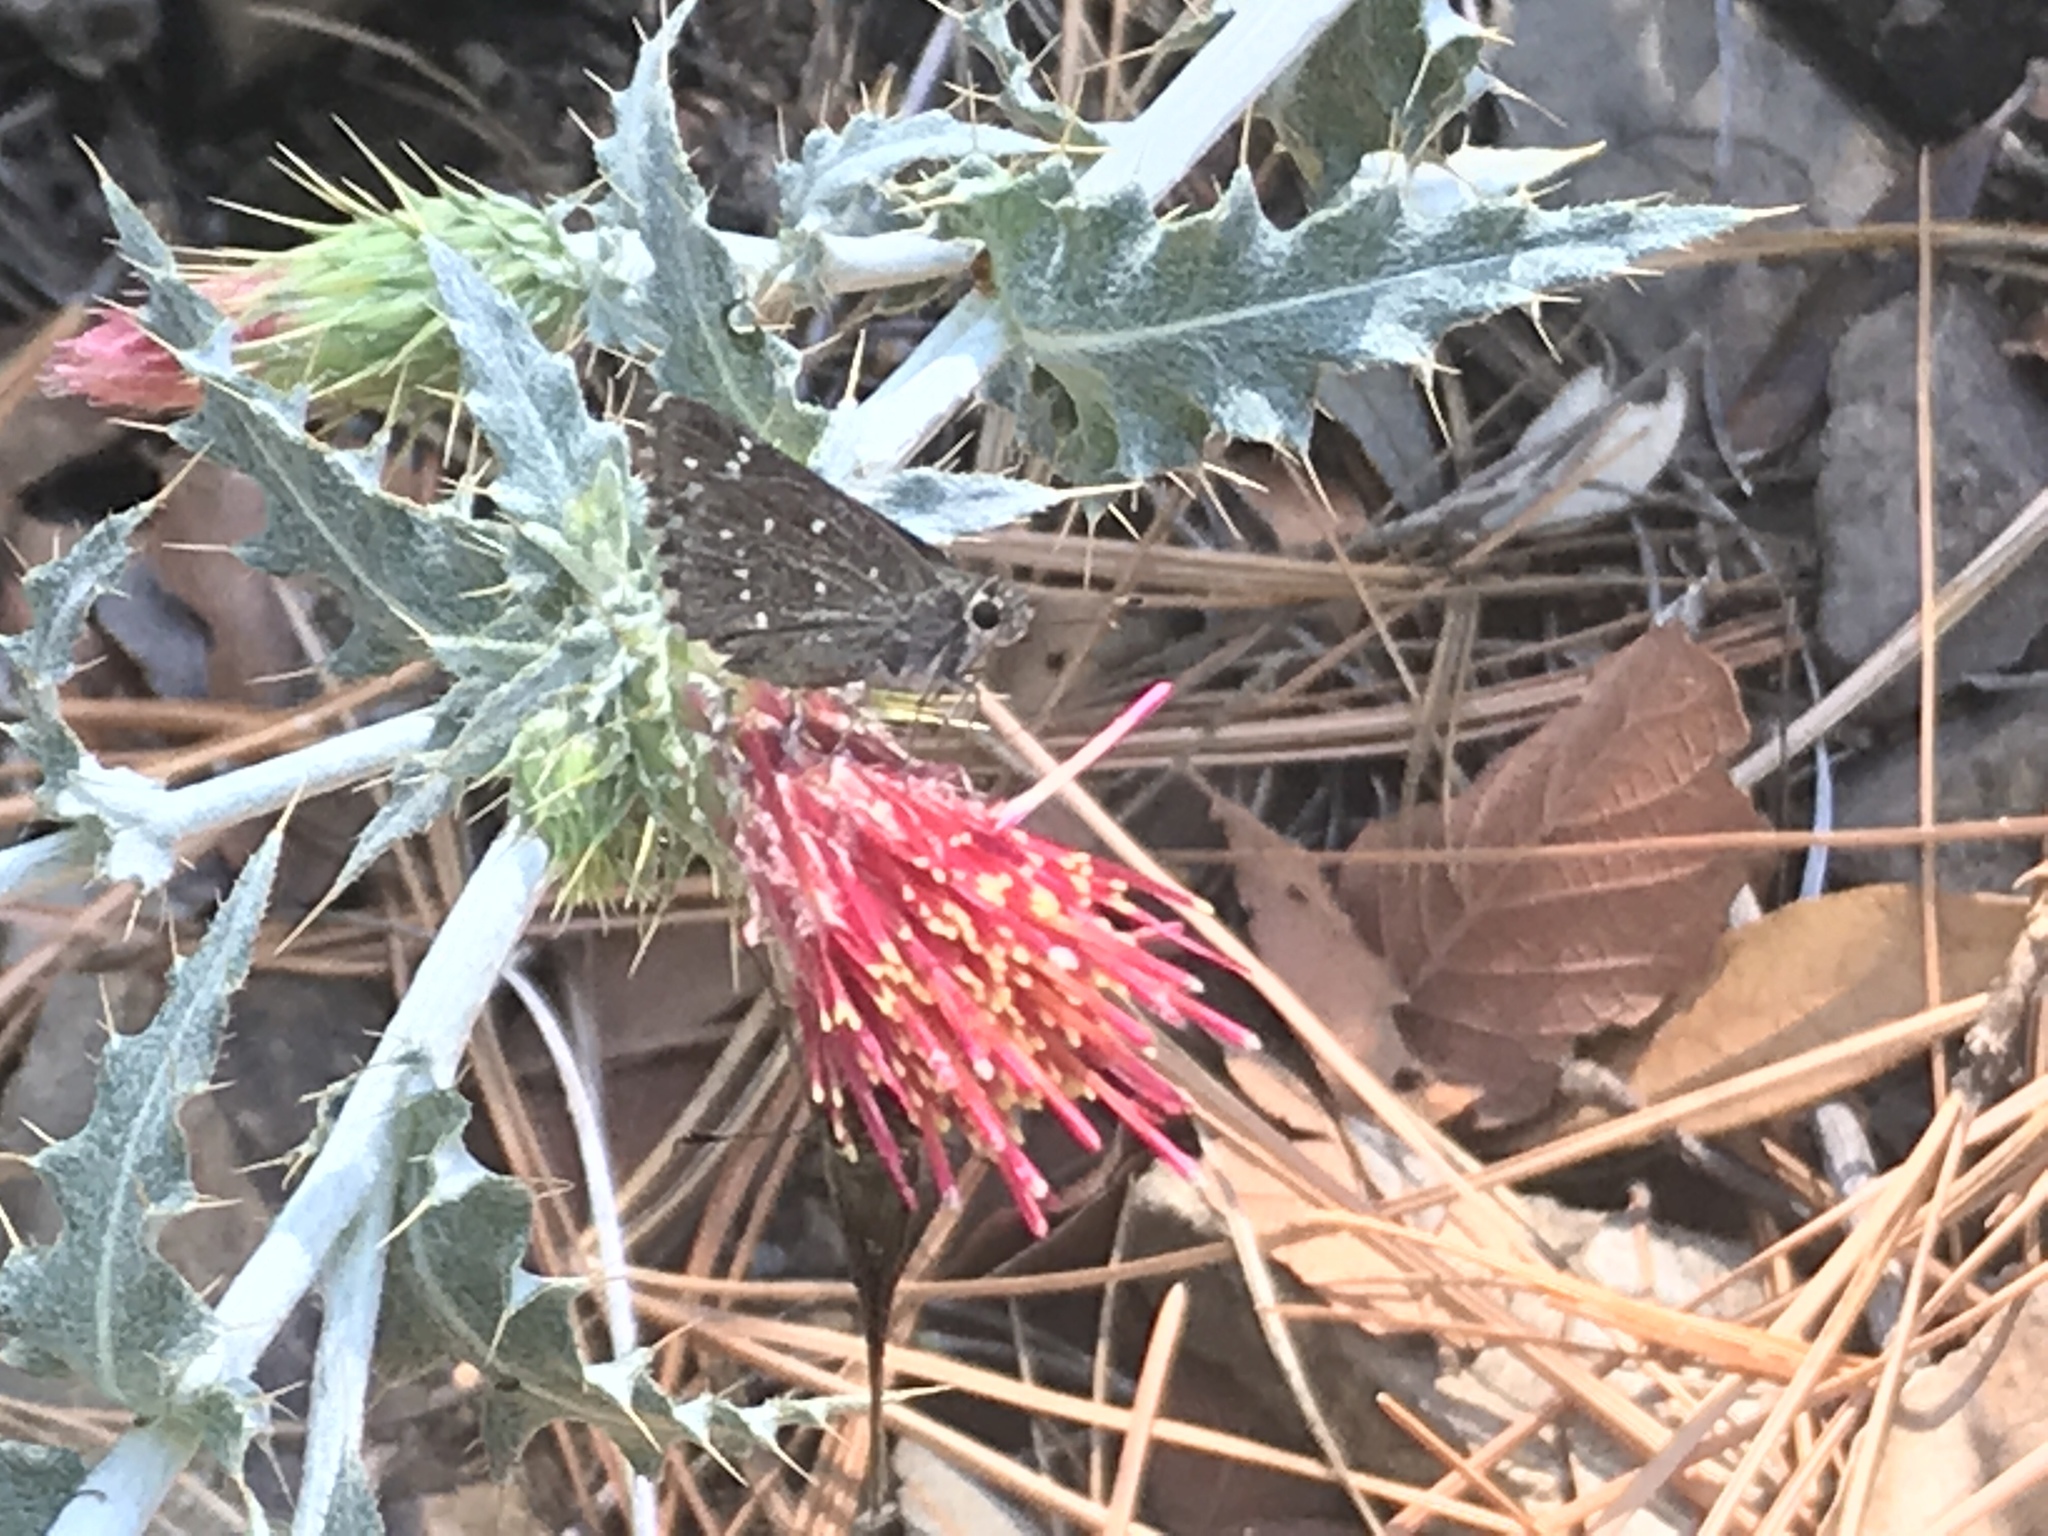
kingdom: Animalia
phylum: Arthropoda
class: Insecta
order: Lepidoptera
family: Hesperiidae
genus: Mastor
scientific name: Mastor exoteria
